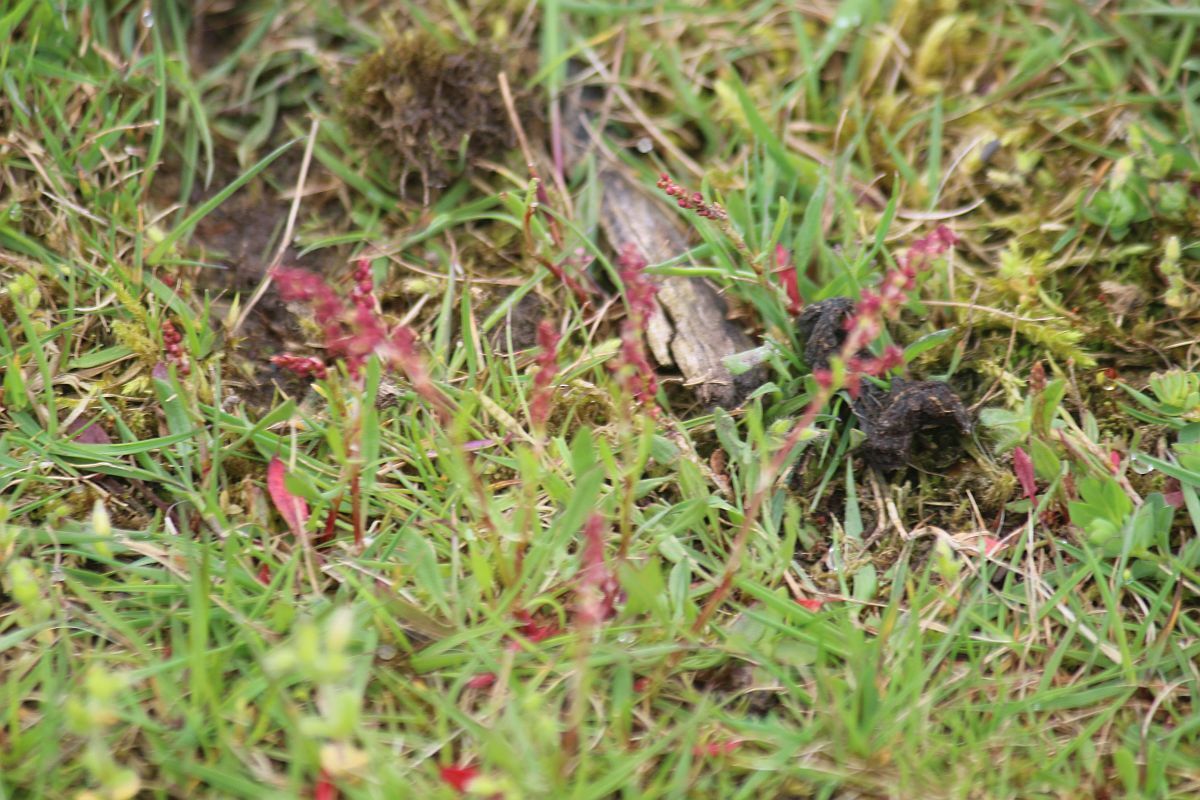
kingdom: Plantae
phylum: Tracheophyta
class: Magnoliopsida
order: Caryophyllales
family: Polygonaceae
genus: Rumex
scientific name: Rumex acetosella
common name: Common sheep sorrel
